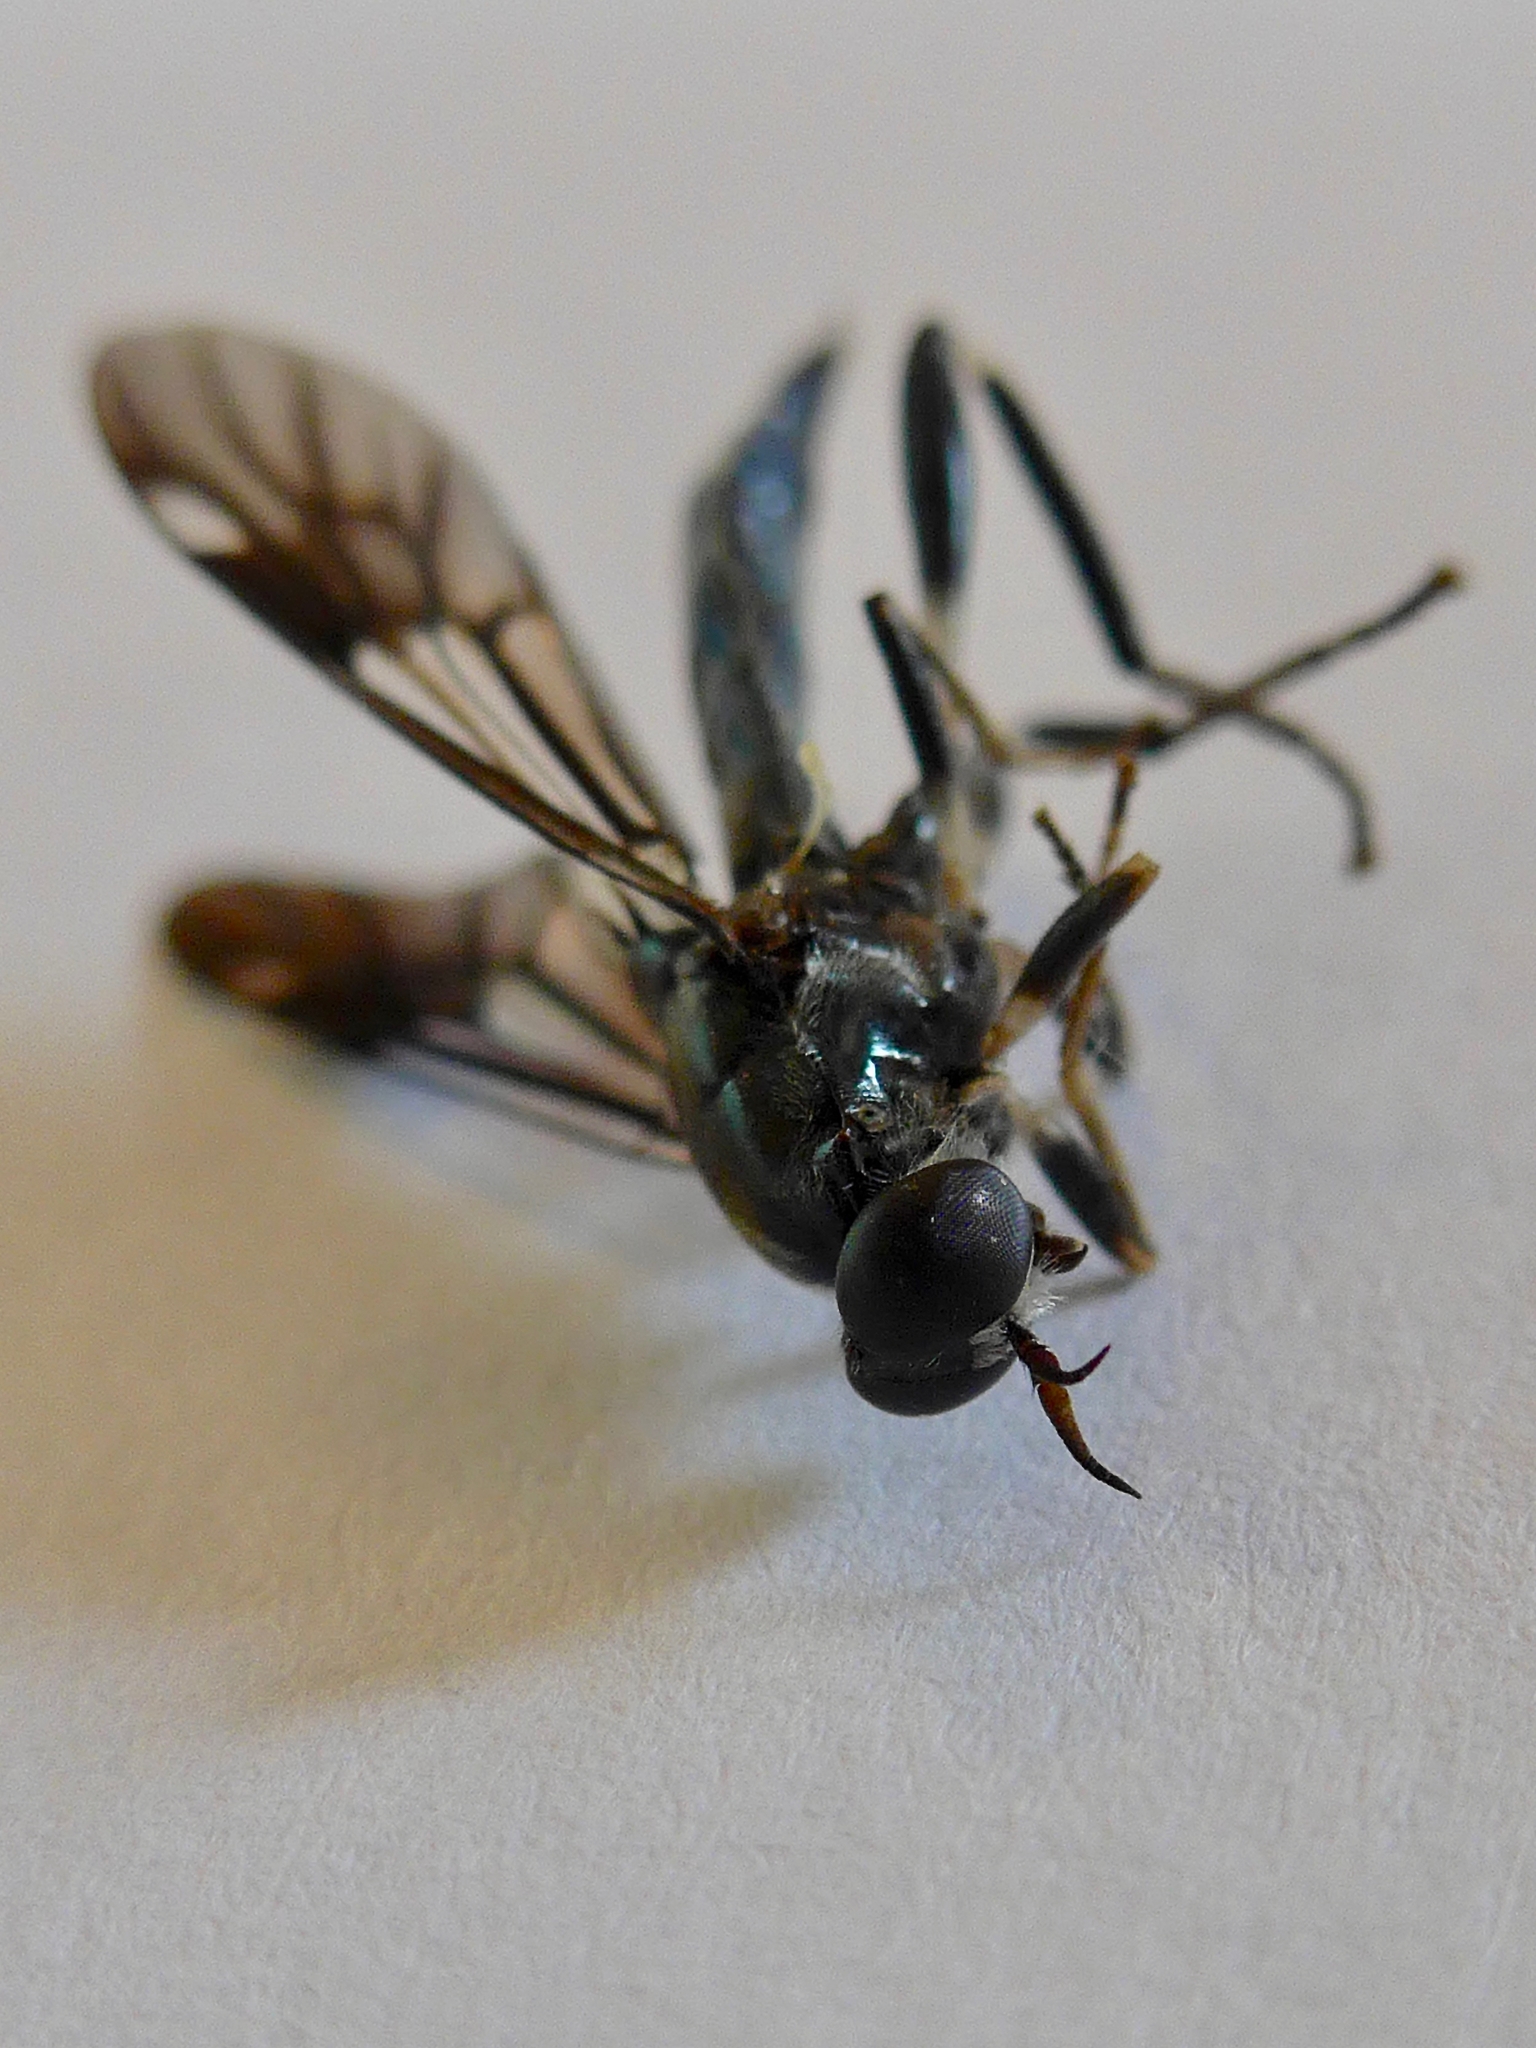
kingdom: Animalia
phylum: Arthropoda
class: Insecta
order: Diptera
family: Stratiomyidae
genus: Exaireta
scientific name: Exaireta spinigera
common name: Blue soldier fly
